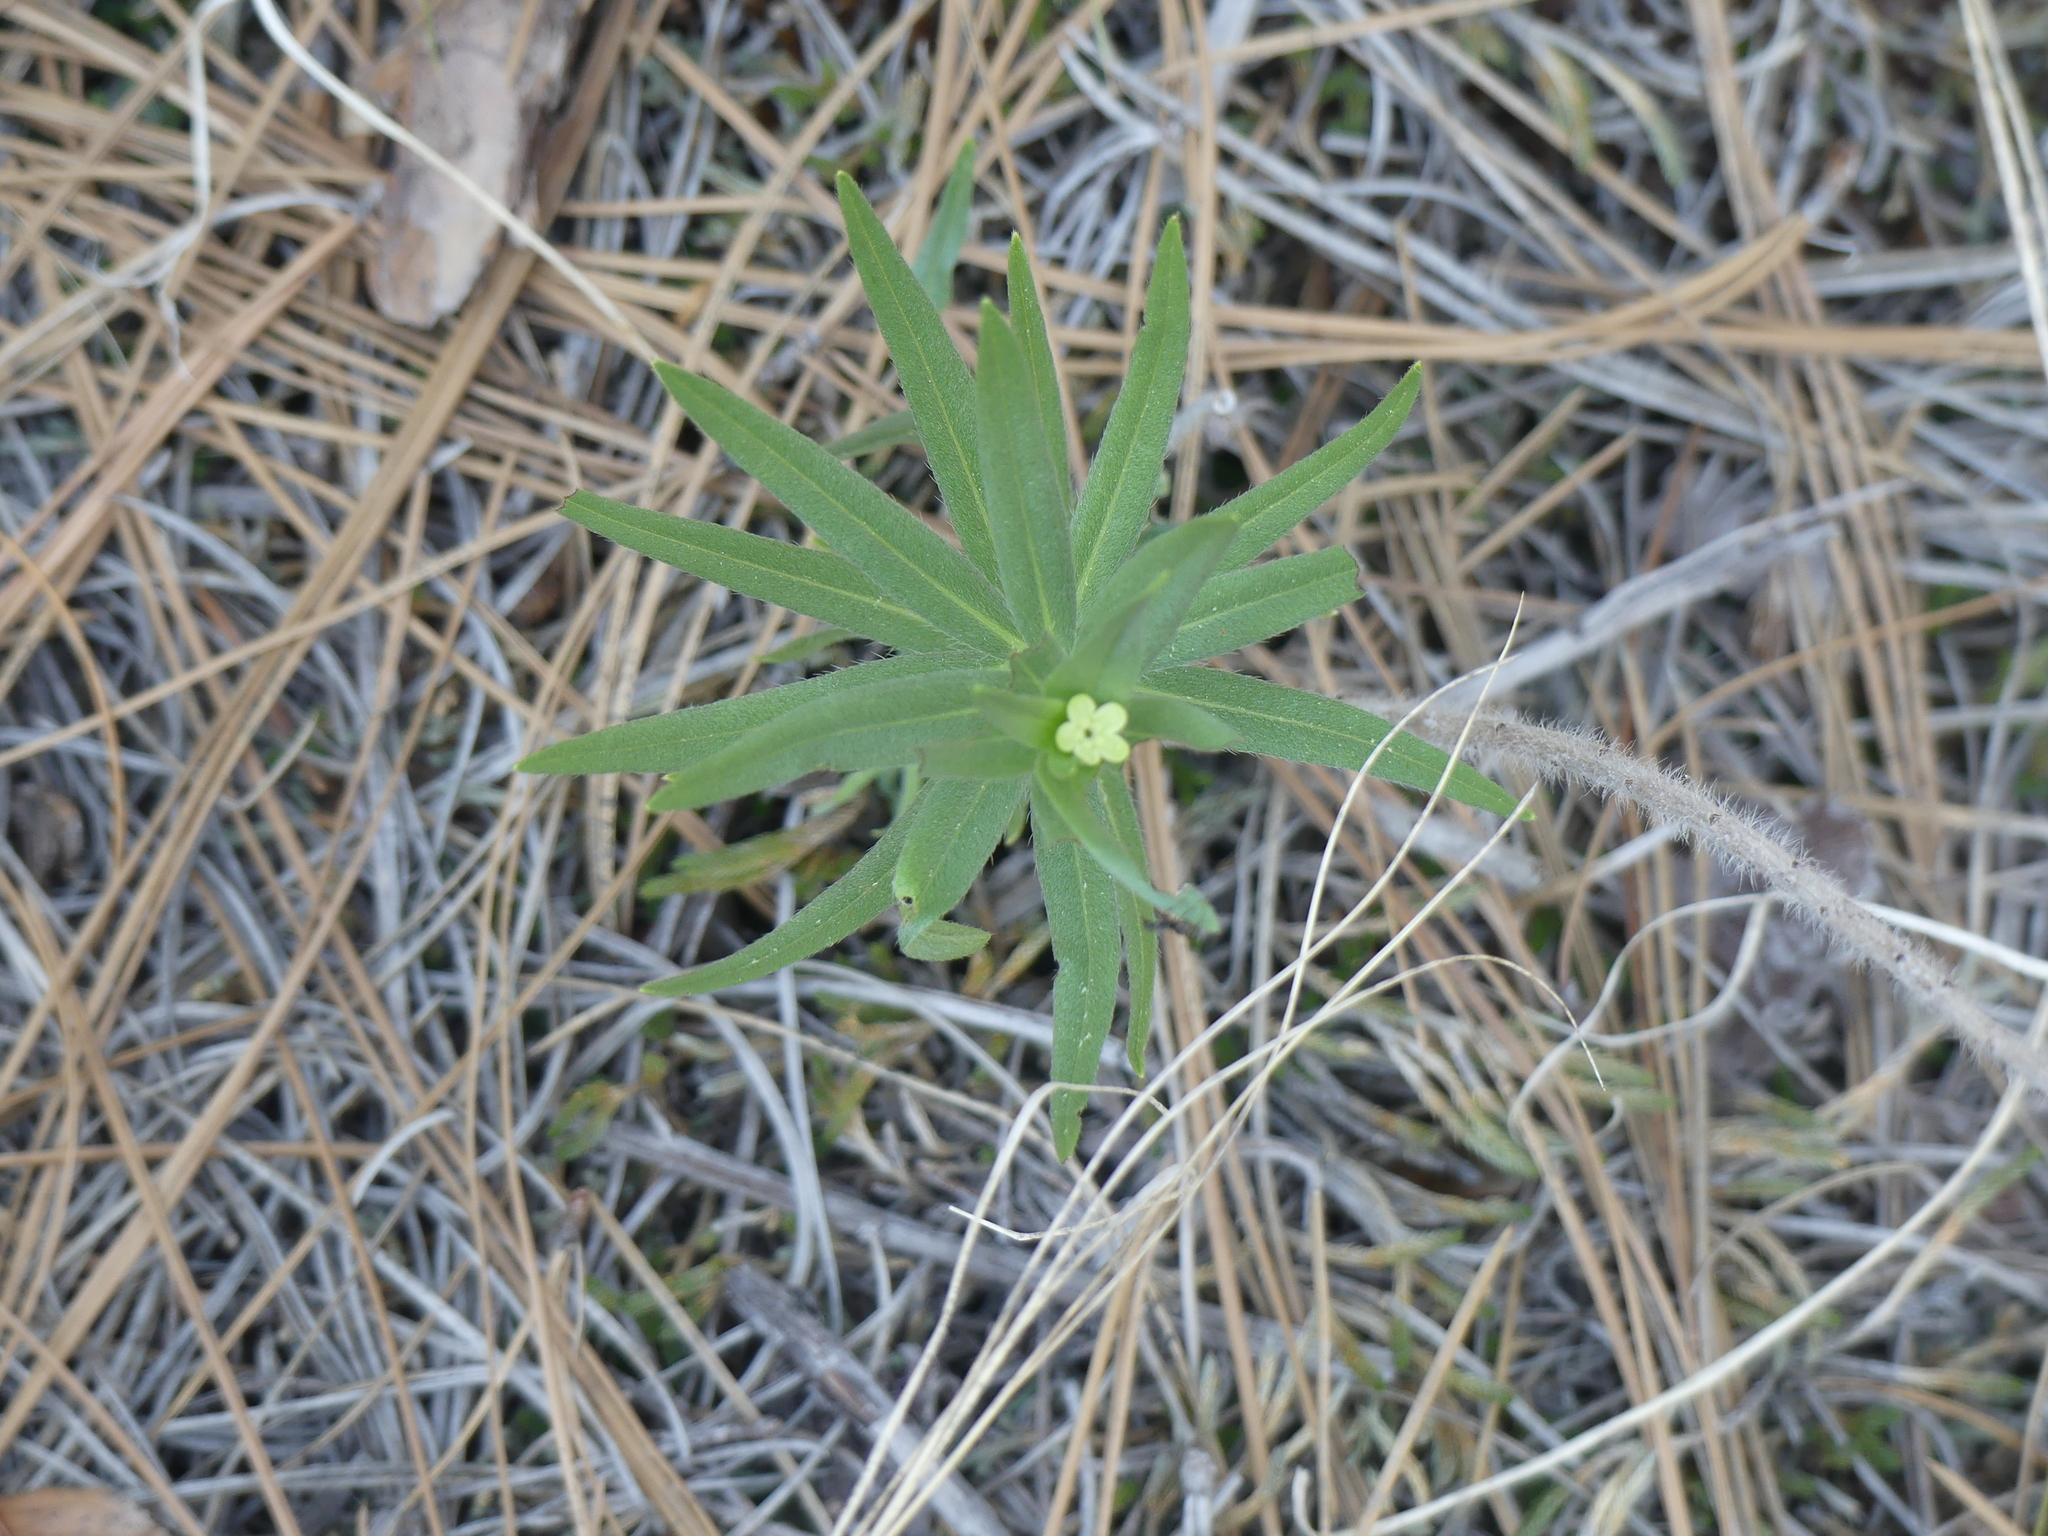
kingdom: Plantae
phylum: Tracheophyta
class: Magnoliopsida
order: Boraginales
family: Boraginaceae
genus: Lithospermum
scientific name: Lithospermum ruderale
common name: Western gromwell
